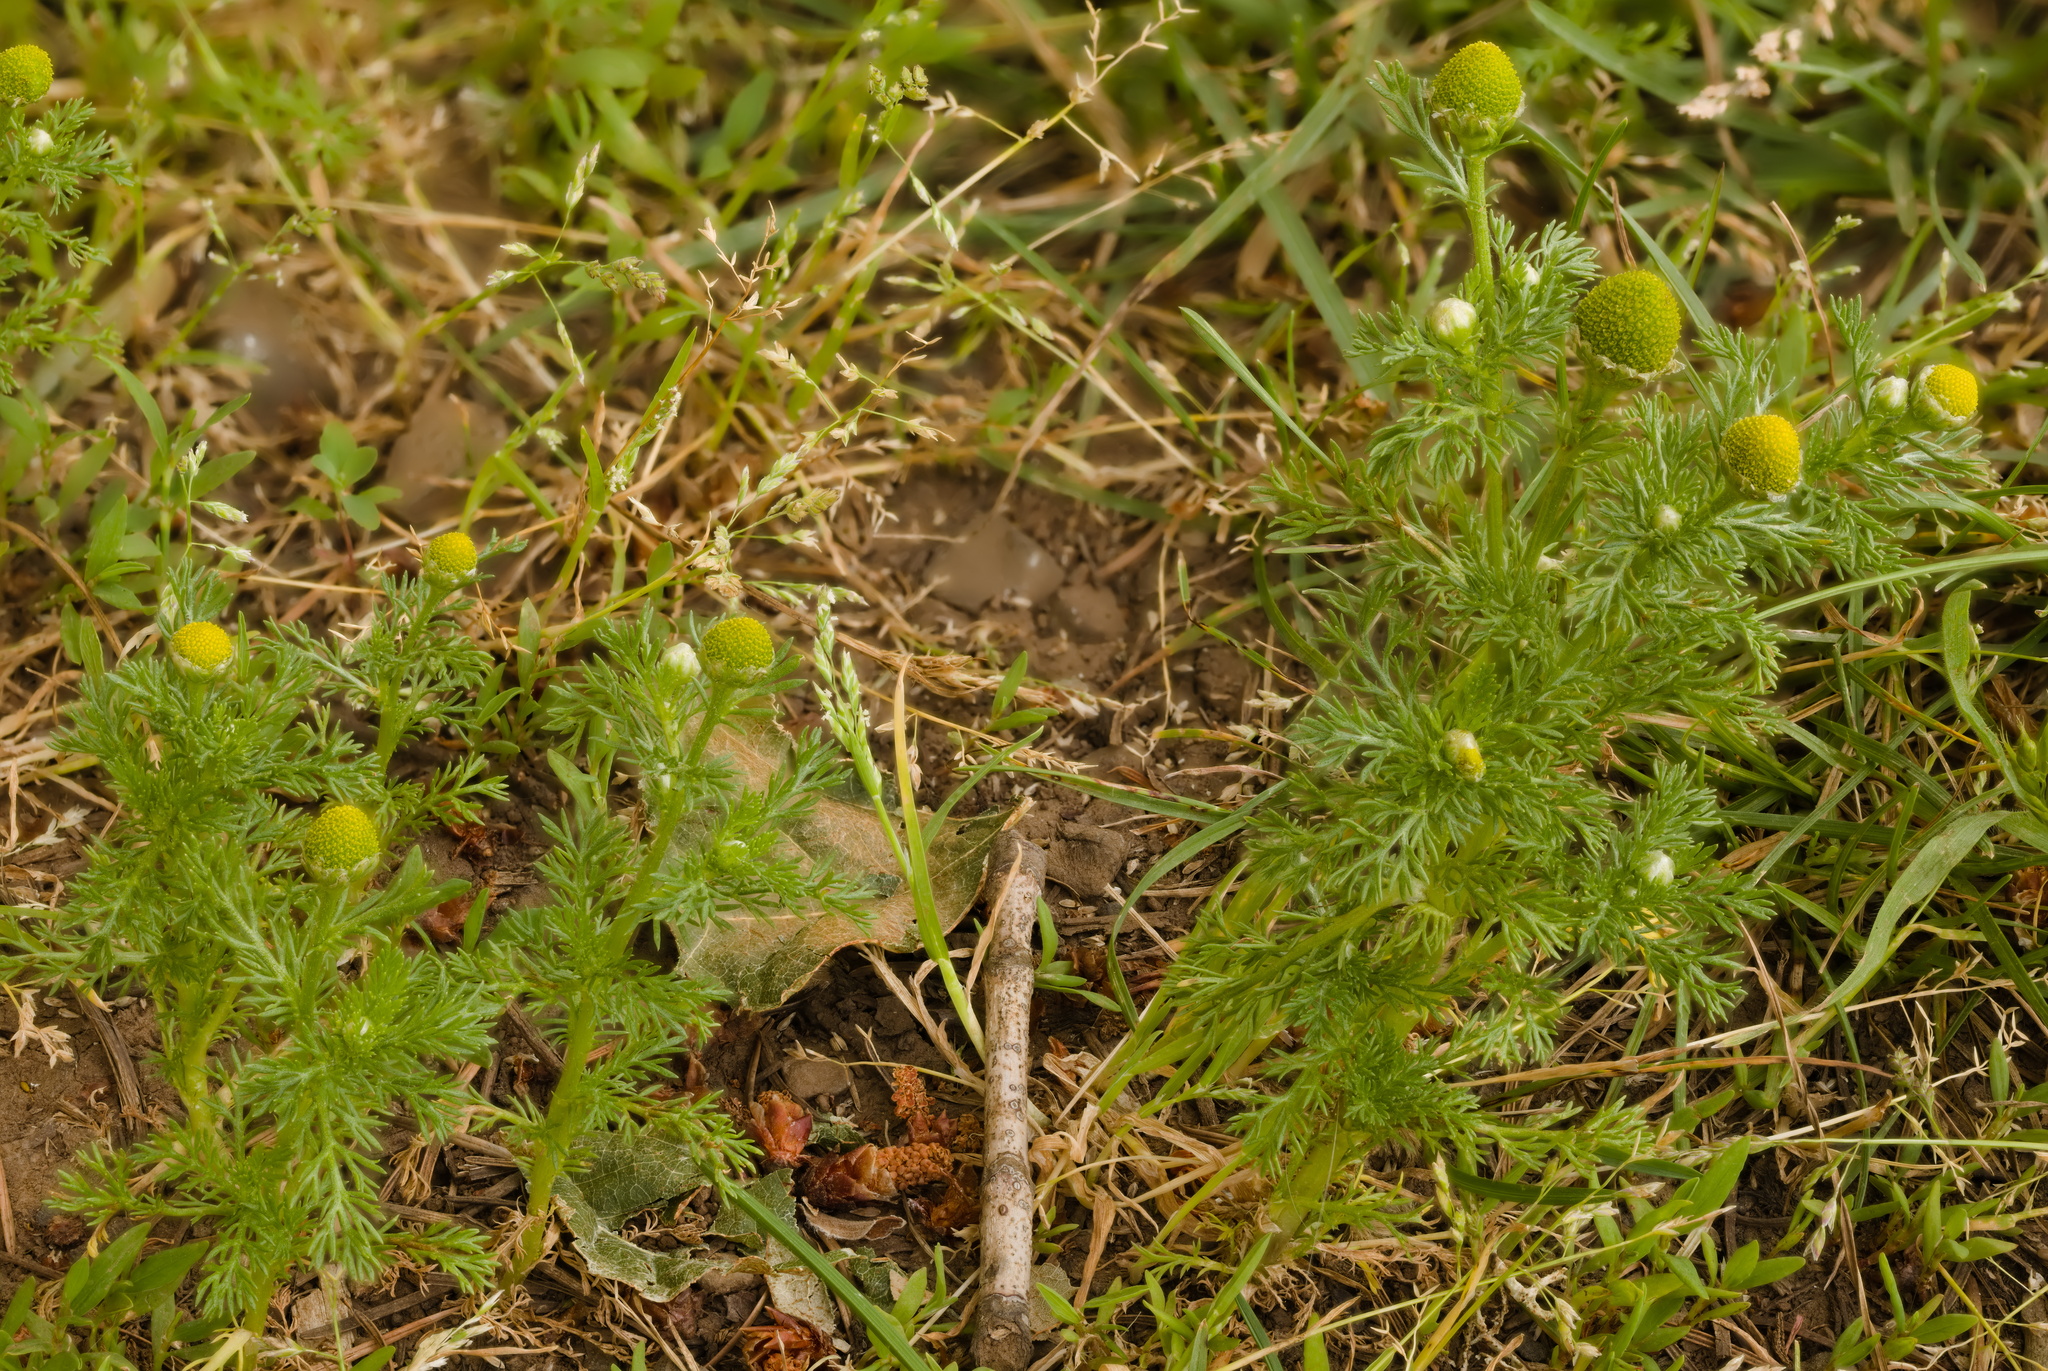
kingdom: Plantae
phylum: Tracheophyta
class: Magnoliopsida
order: Asterales
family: Asteraceae
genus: Matricaria
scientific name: Matricaria discoidea
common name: Disc mayweed
